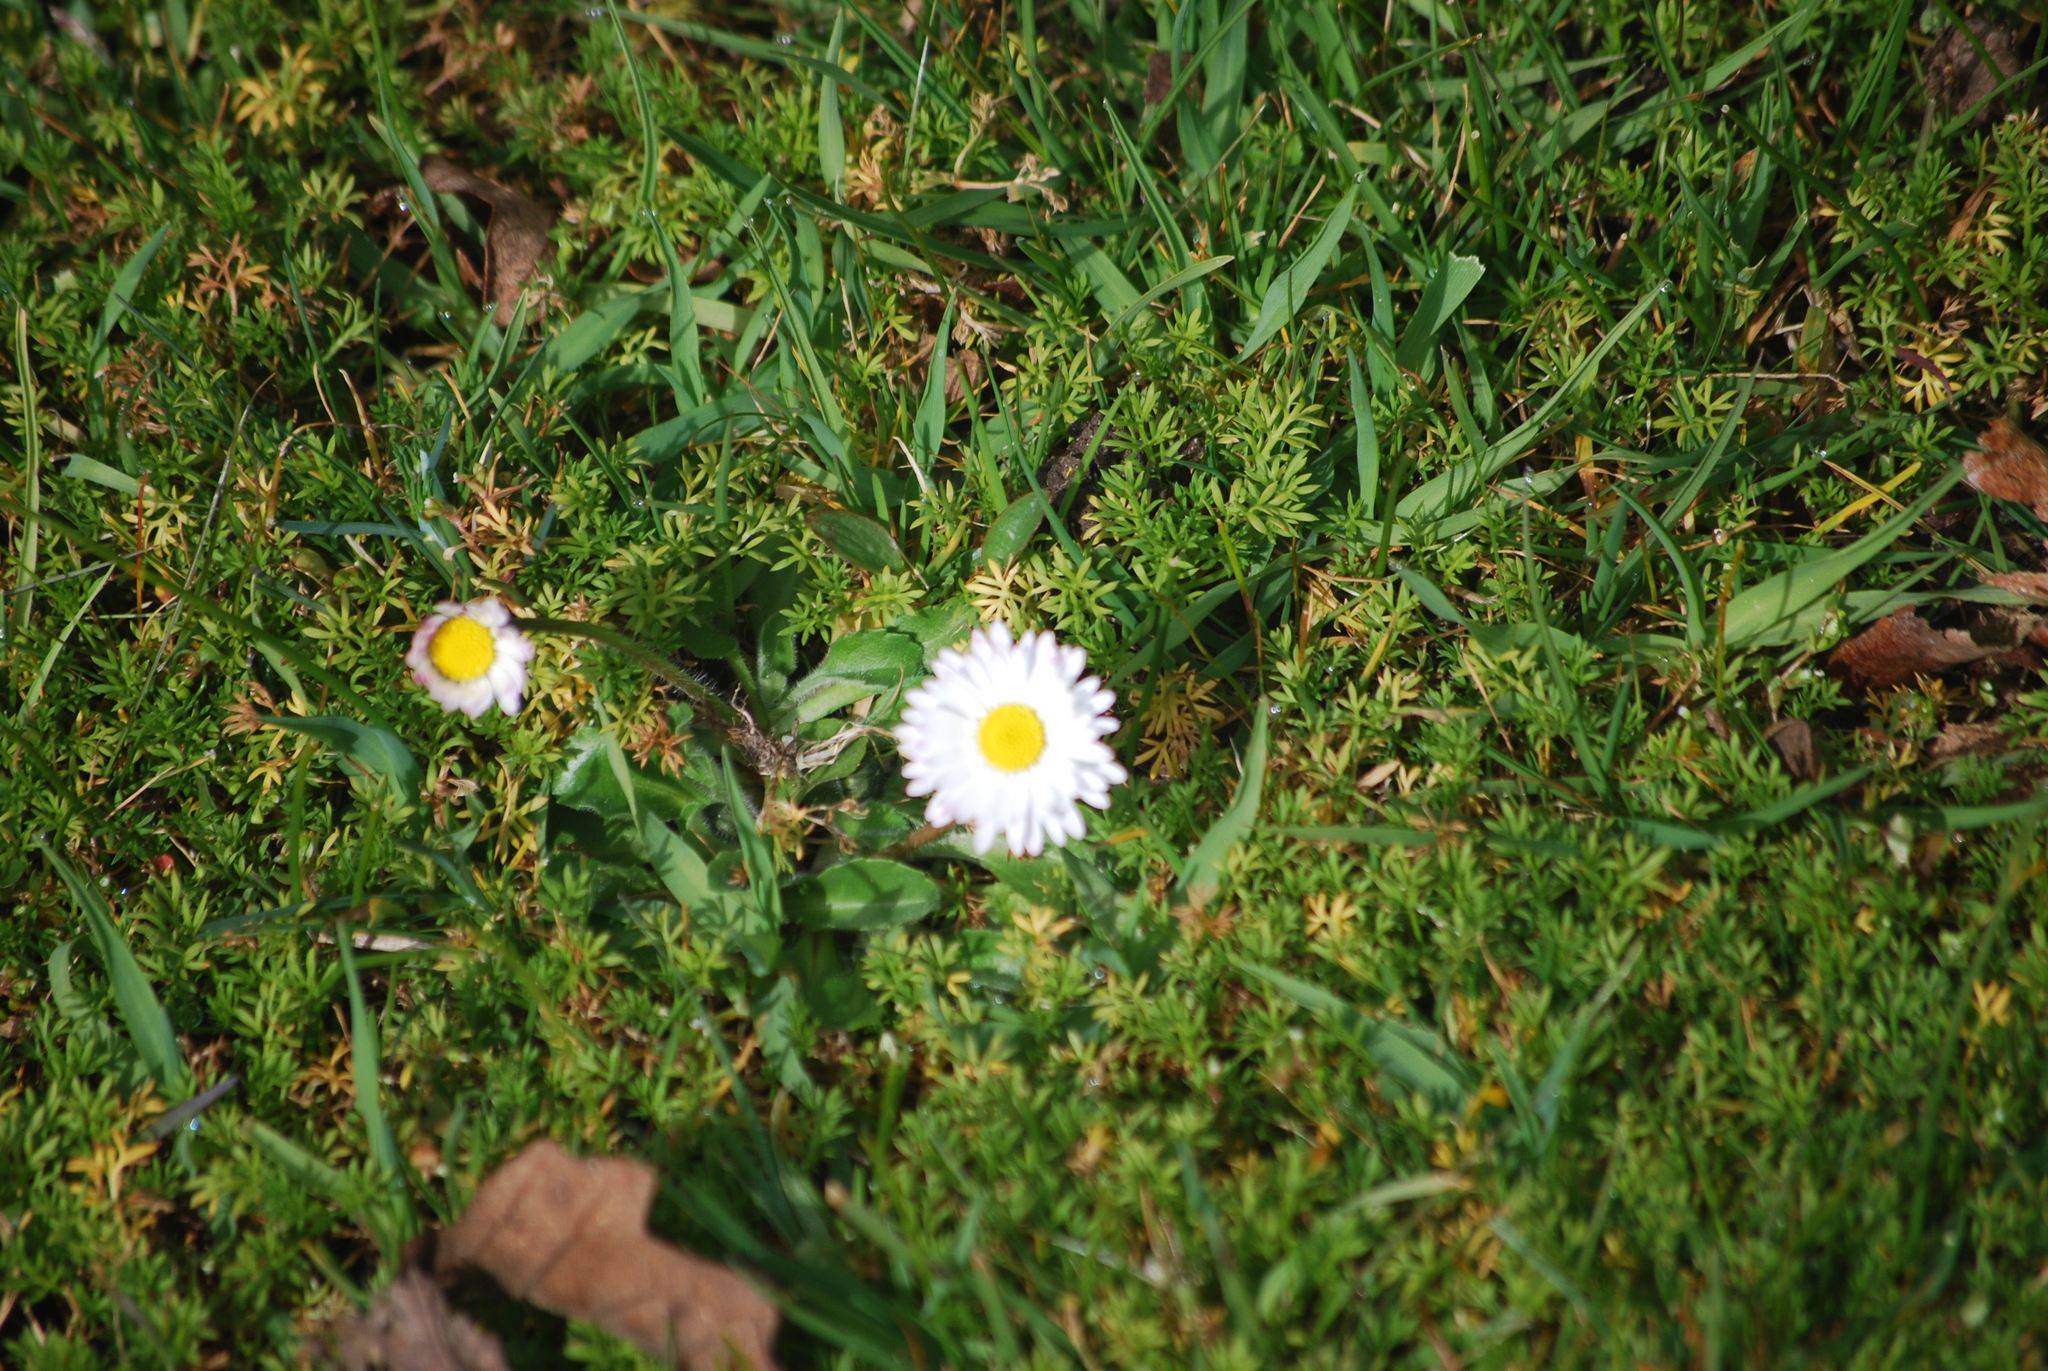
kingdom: Plantae
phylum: Tracheophyta
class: Magnoliopsida
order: Asterales
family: Asteraceae
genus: Bellis
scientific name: Bellis perennis
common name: Lawndaisy
